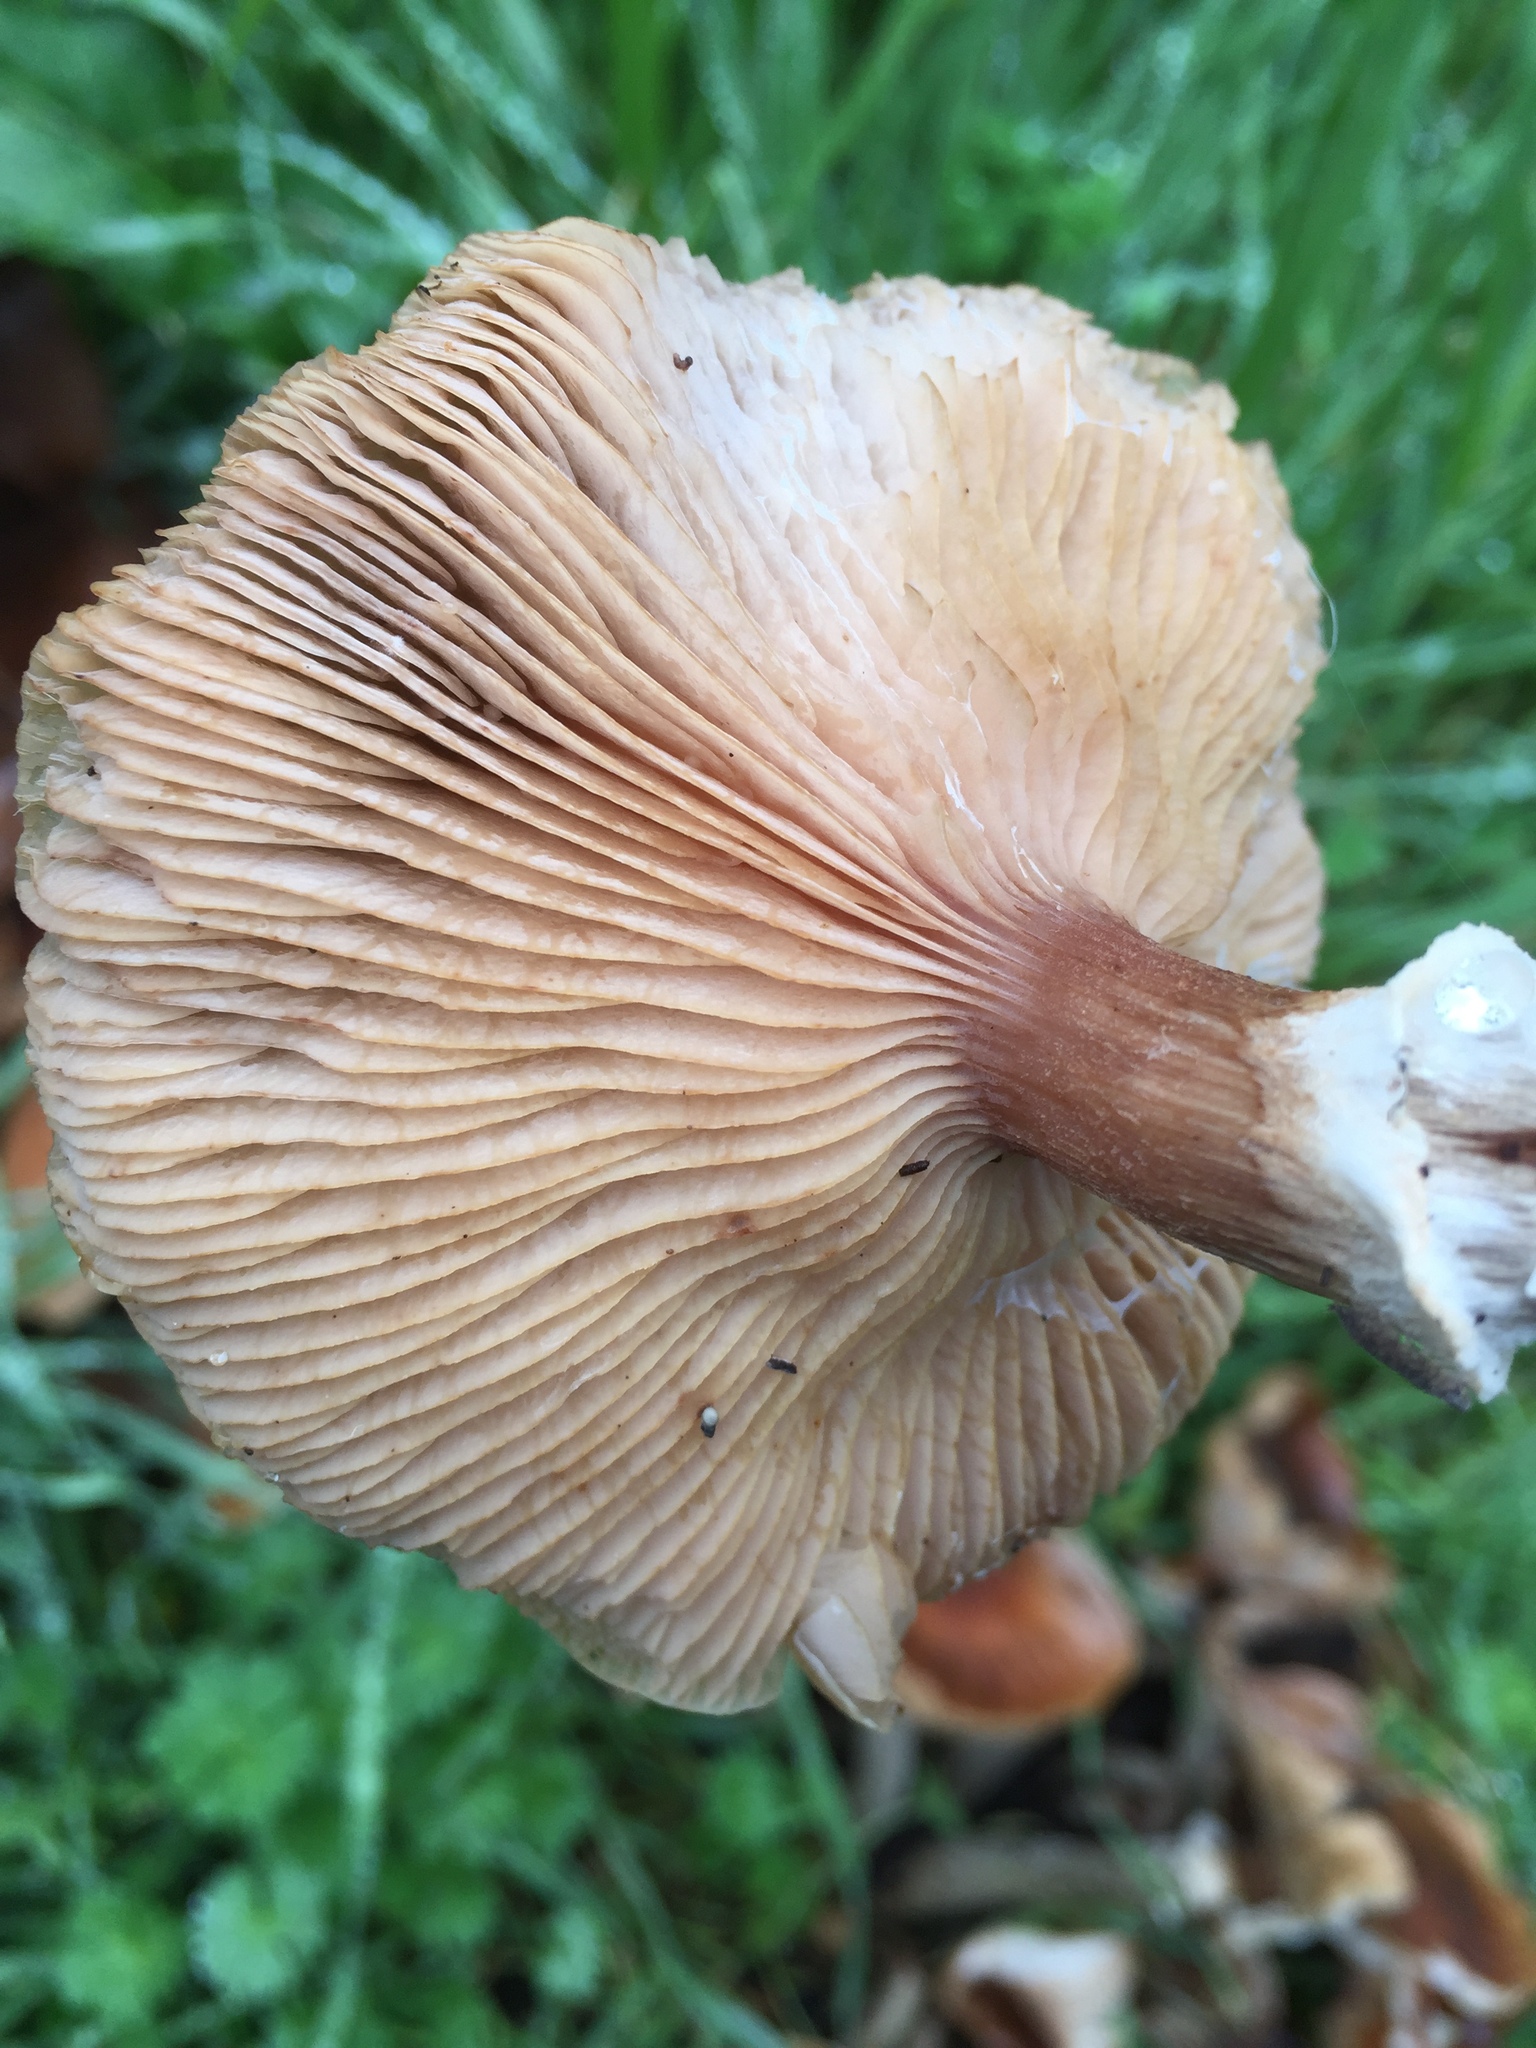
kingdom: Fungi
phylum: Basidiomycota
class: Agaricomycetes
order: Agaricales
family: Physalacriaceae
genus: Armillaria
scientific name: Armillaria mellea
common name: Honey fungus
